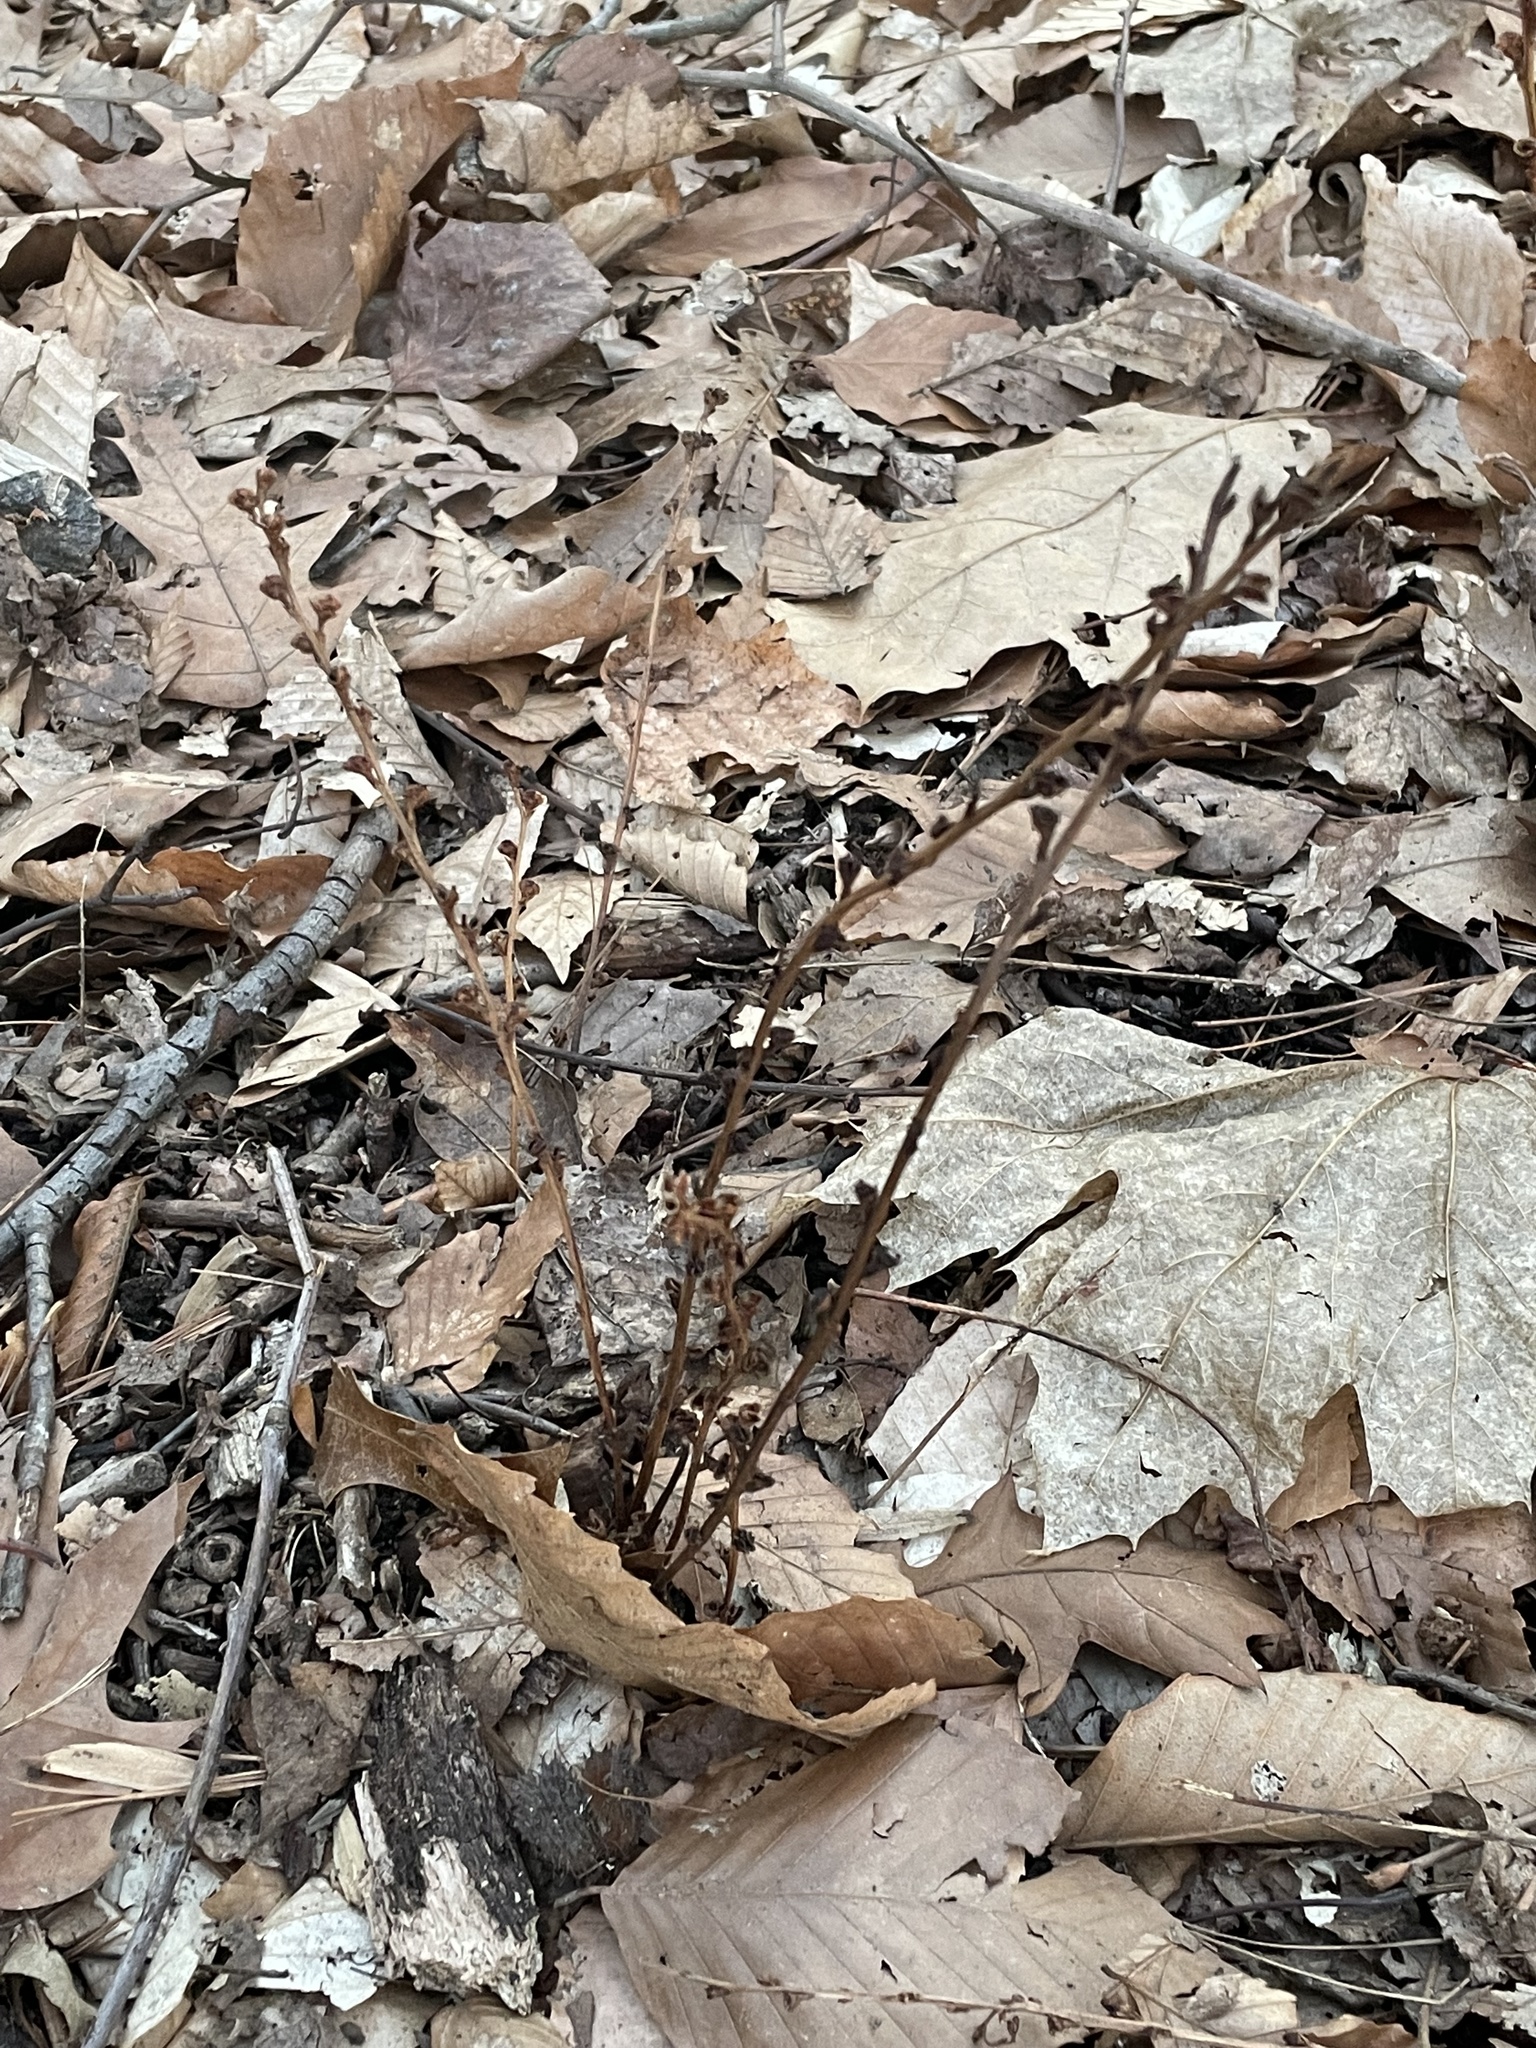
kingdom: Plantae
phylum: Tracheophyta
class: Magnoliopsida
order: Lamiales
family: Orobanchaceae
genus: Epifagus
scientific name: Epifagus virginiana
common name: Beechdrops
